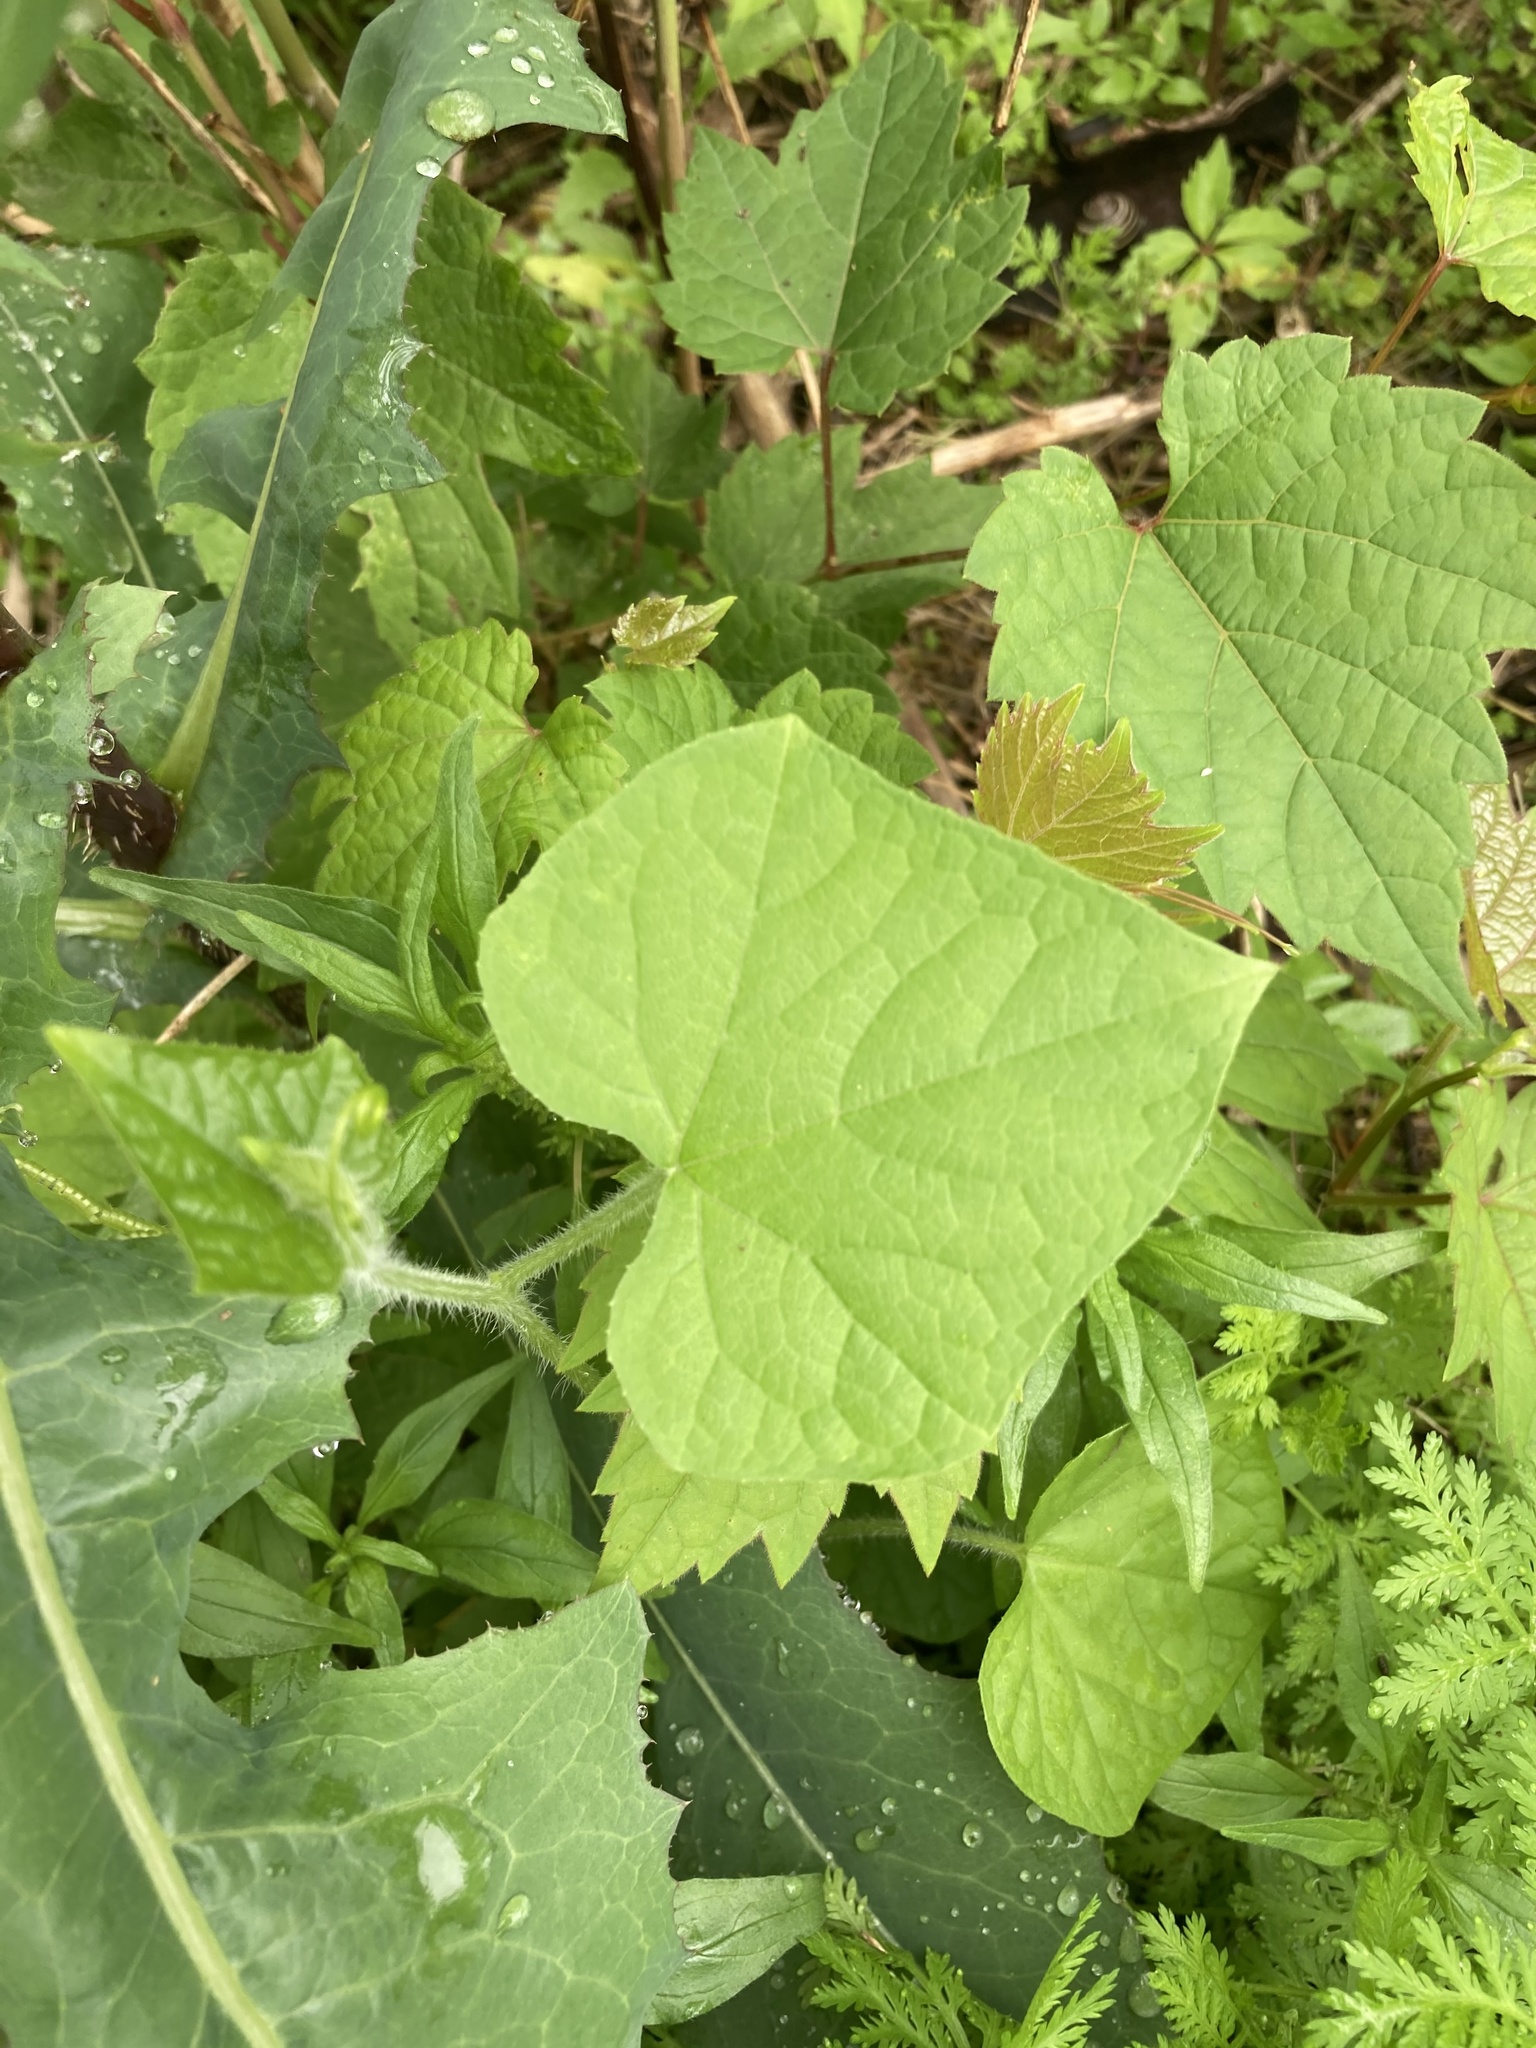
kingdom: Plantae
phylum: Tracheophyta
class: Magnoliopsida
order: Cucurbitales
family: Cucurbitaceae
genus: Sicyos
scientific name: Sicyos angulatus
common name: Angled burr cucumber
